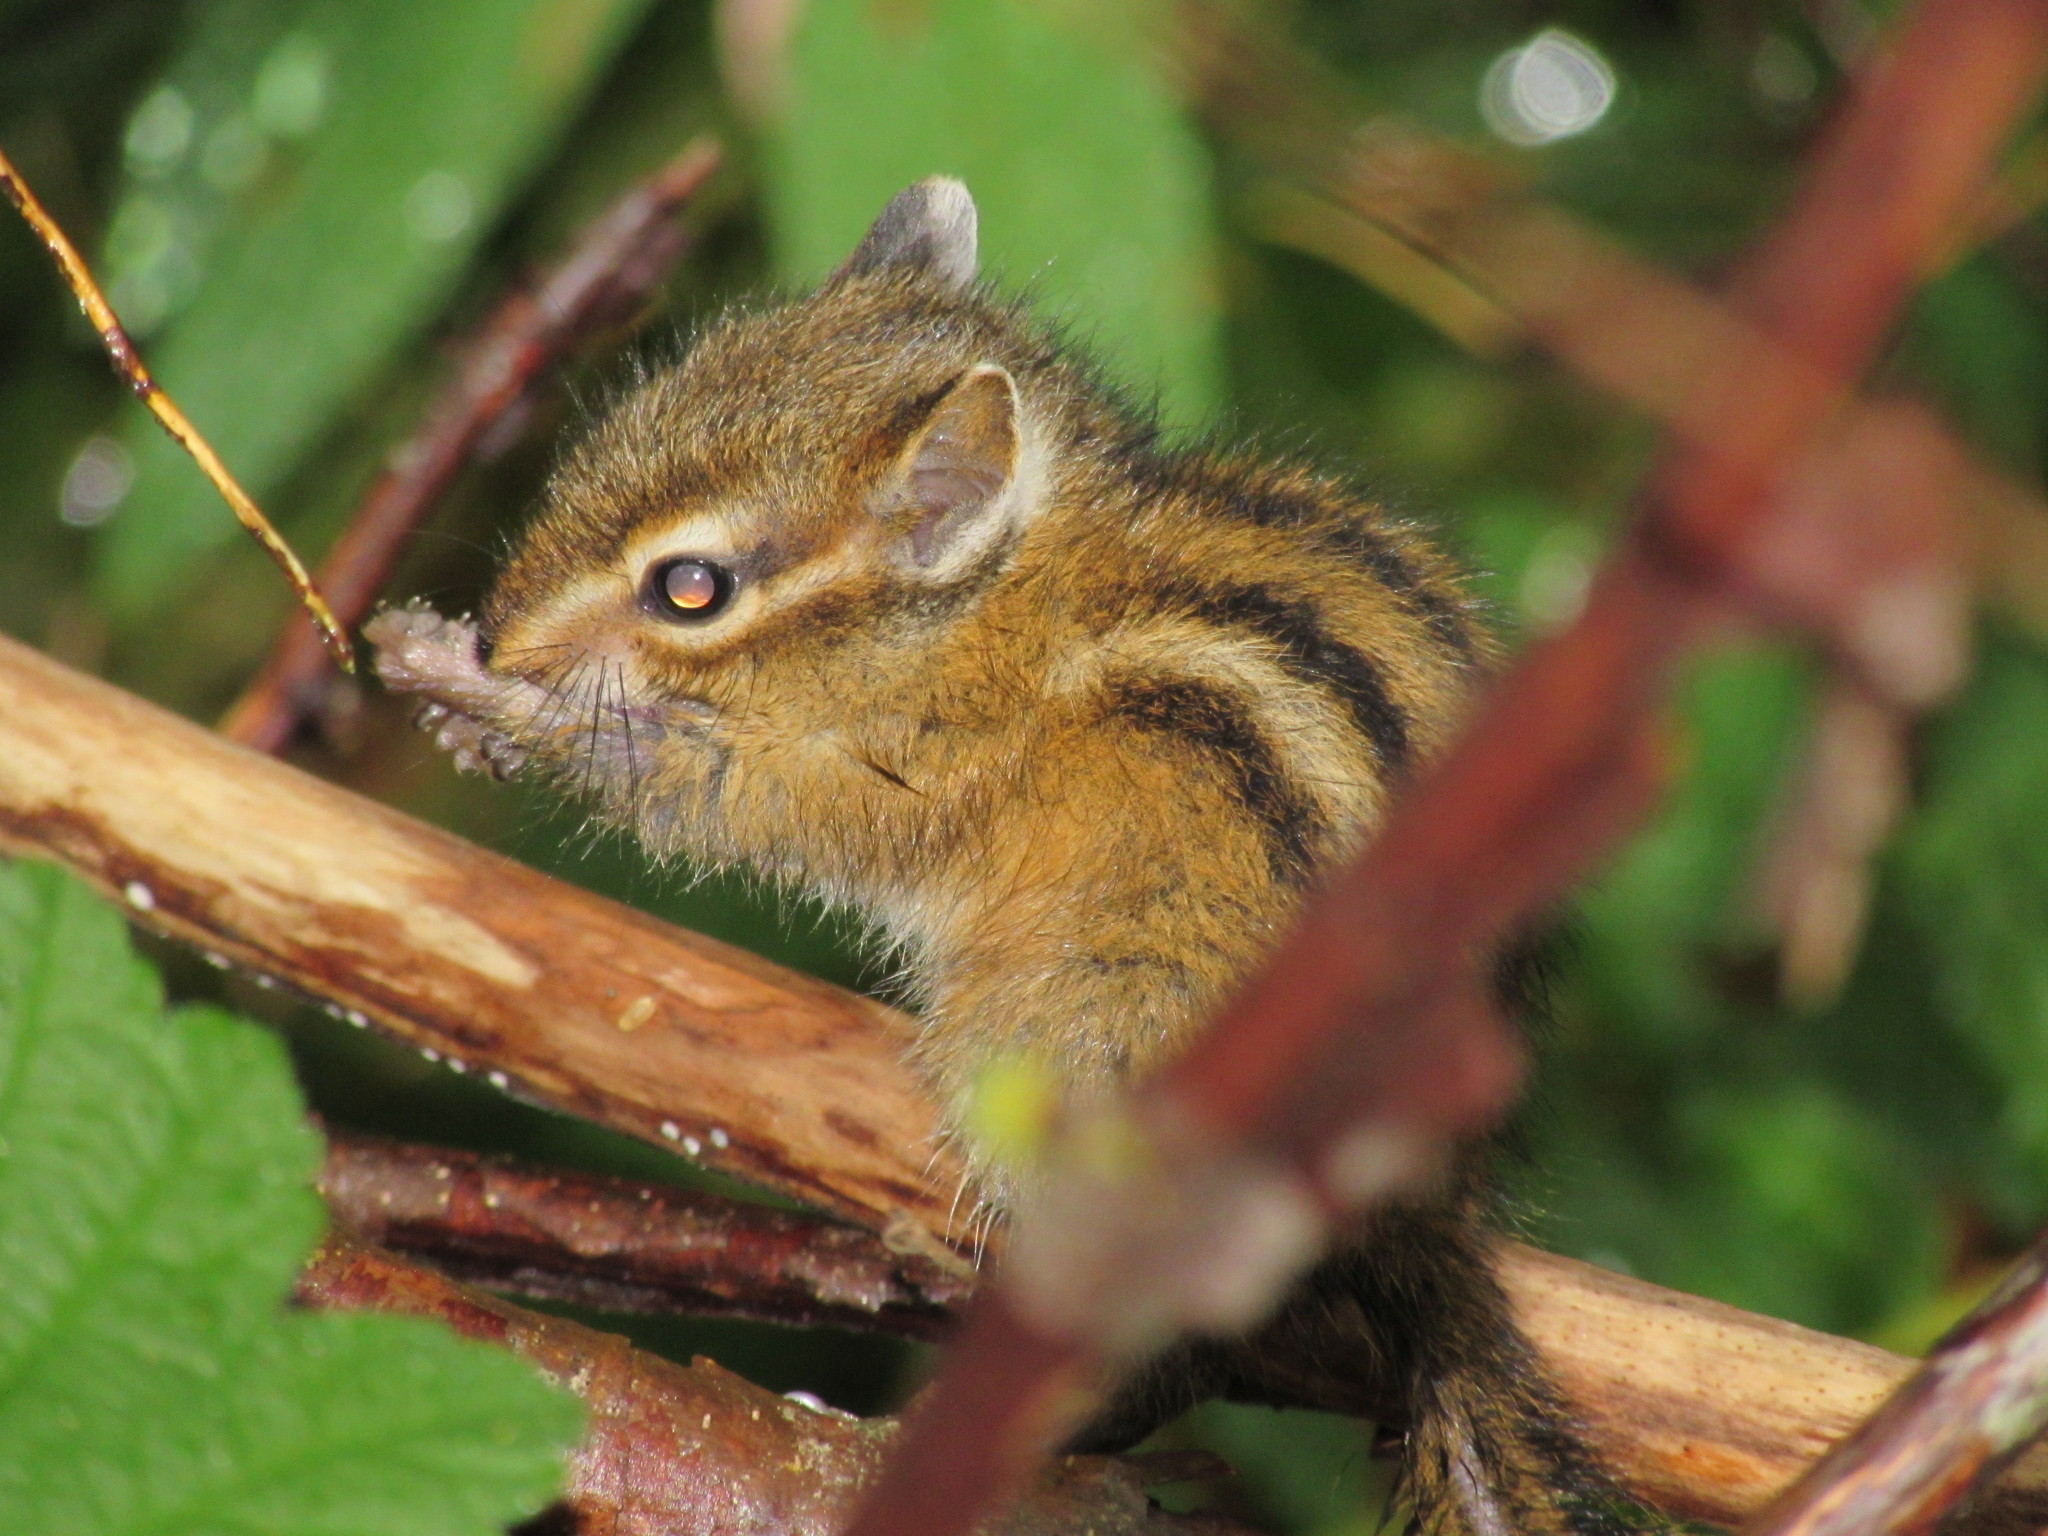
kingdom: Animalia
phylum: Chordata
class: Mammalia
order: Rodentia
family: Sciuridae
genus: Tamias
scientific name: Tamias townsendii
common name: Townsend's chipmunk
